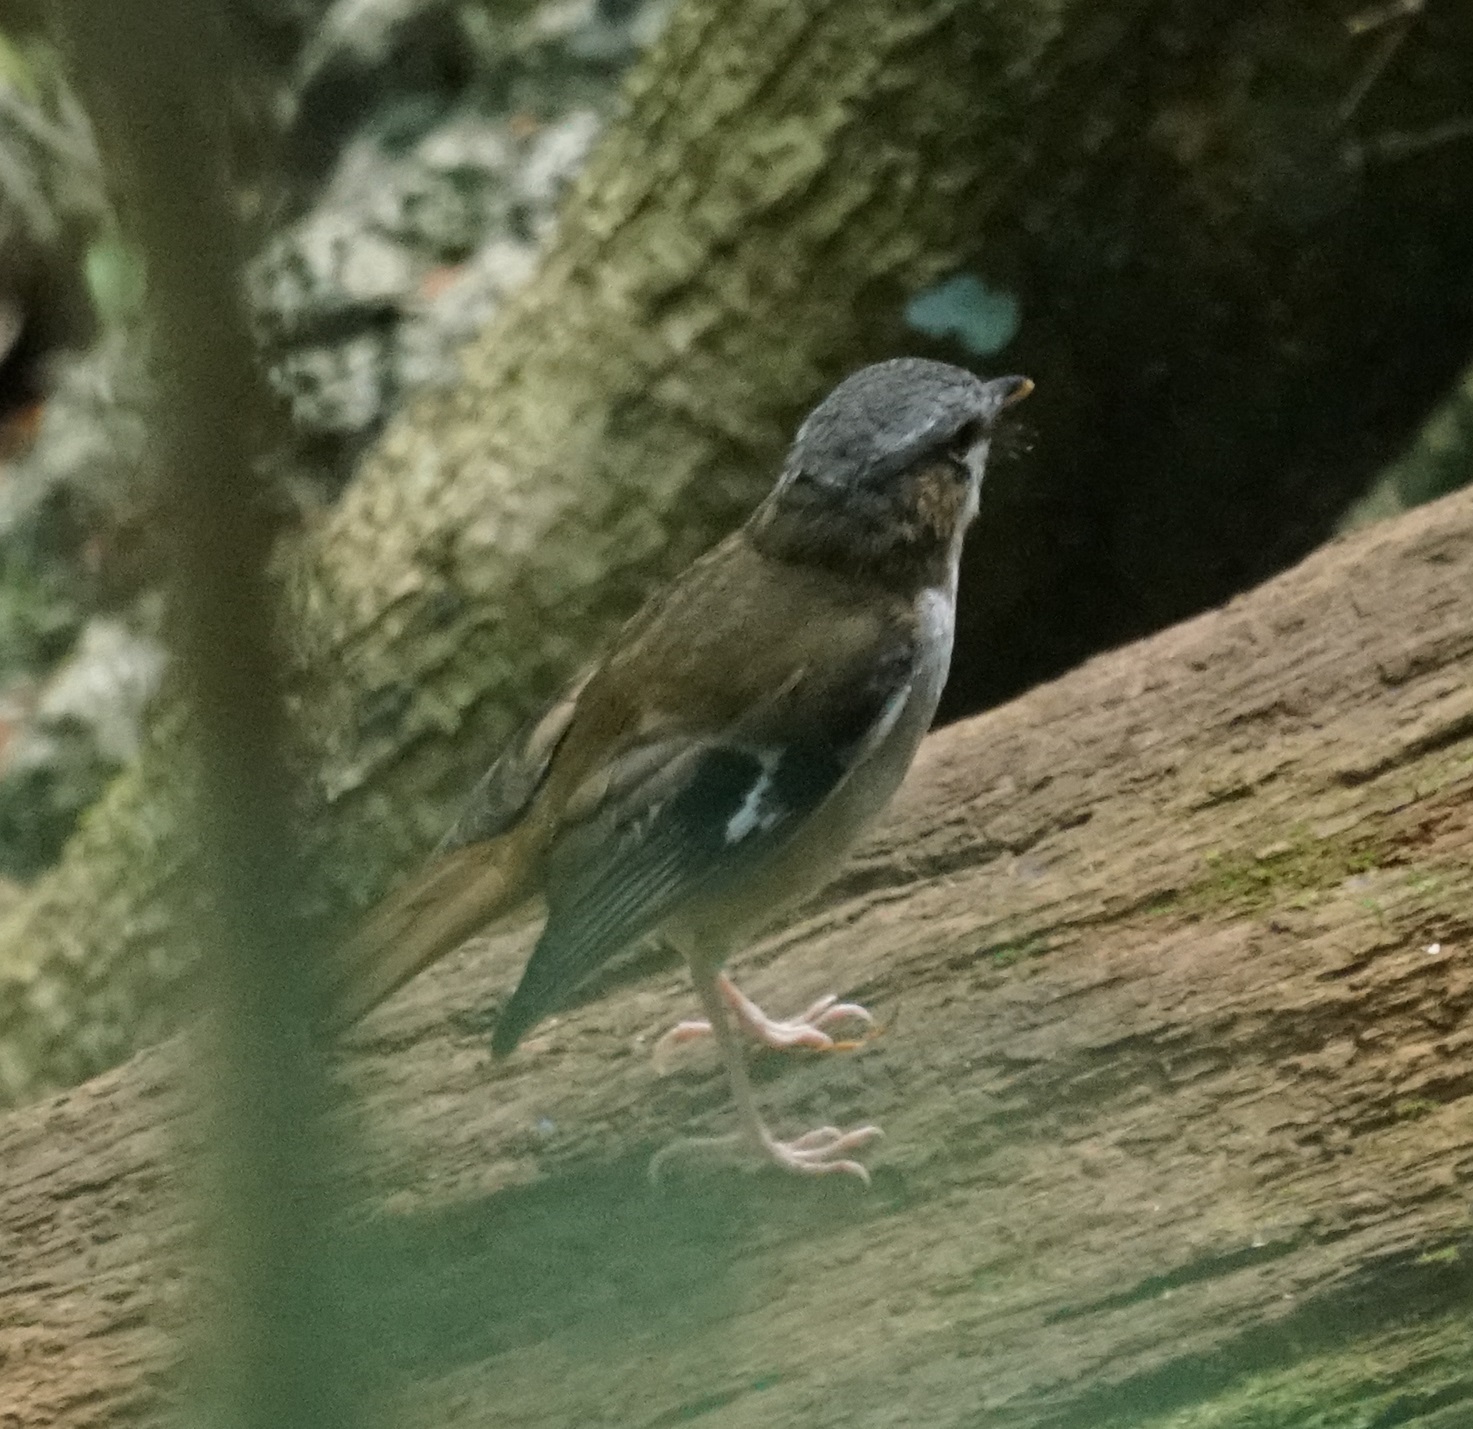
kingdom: Animalia
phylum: Chordata
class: Aves
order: Passeriformes
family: Petroicidae
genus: Heteromyias
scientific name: Heteromyias cinereifrons
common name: Grey-headed robin
